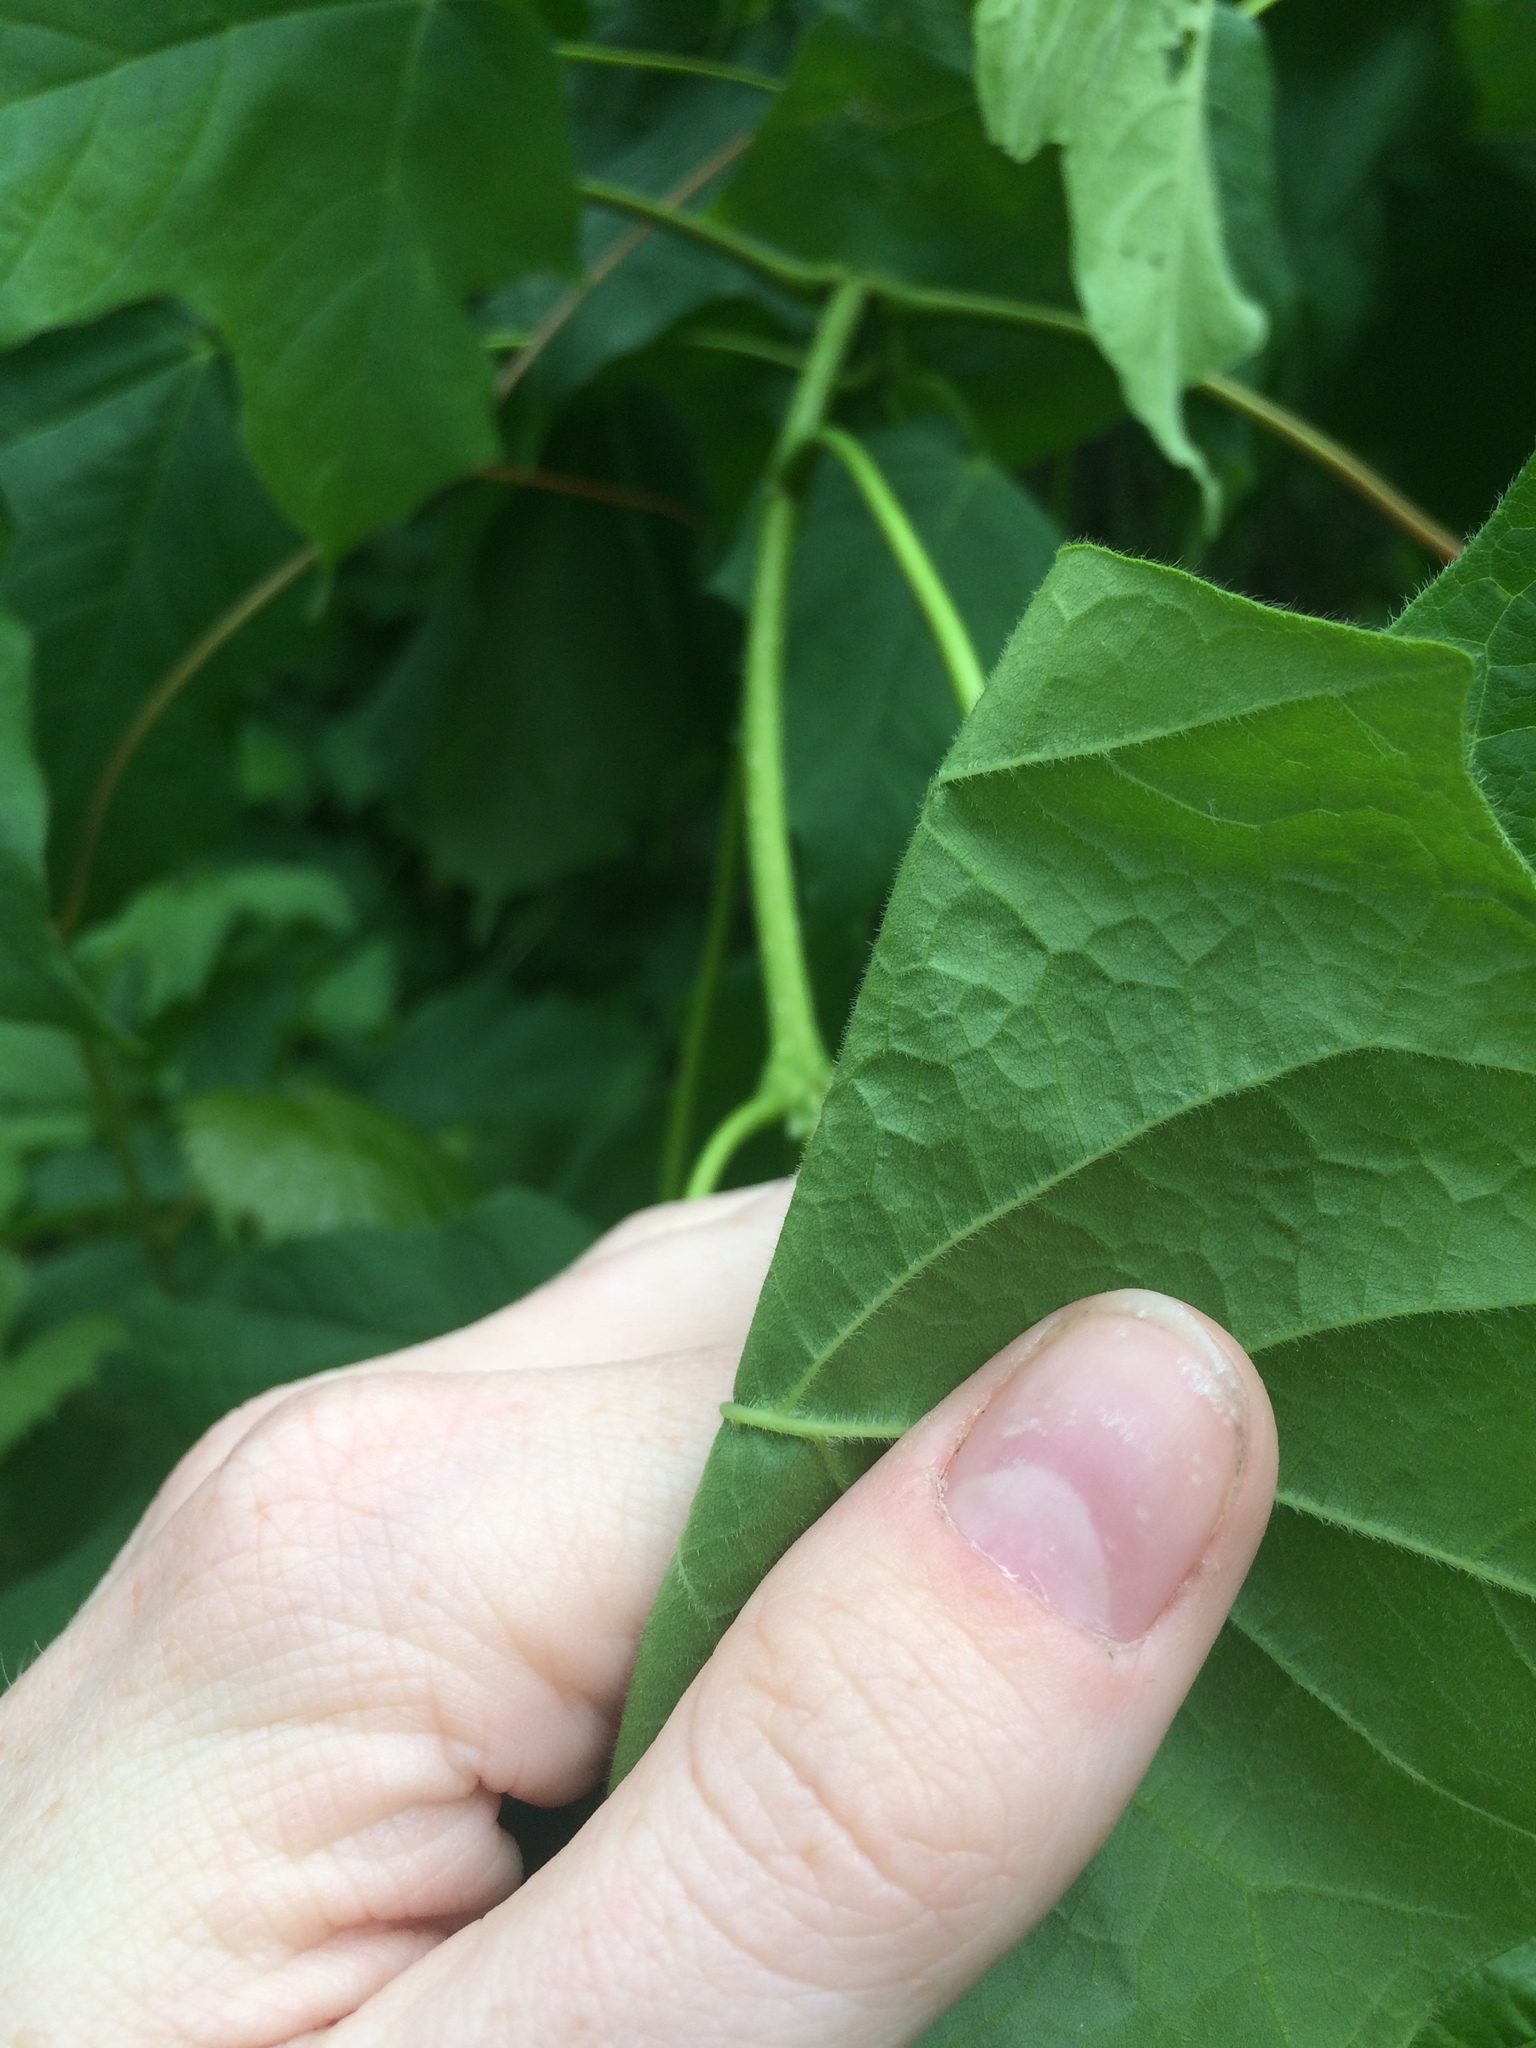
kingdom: Plantae
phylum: Tracheophyta
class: Magnoliopsida
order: Sapindales
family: Sapindaceae
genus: Acer
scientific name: Acer nigrum
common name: Black maple
